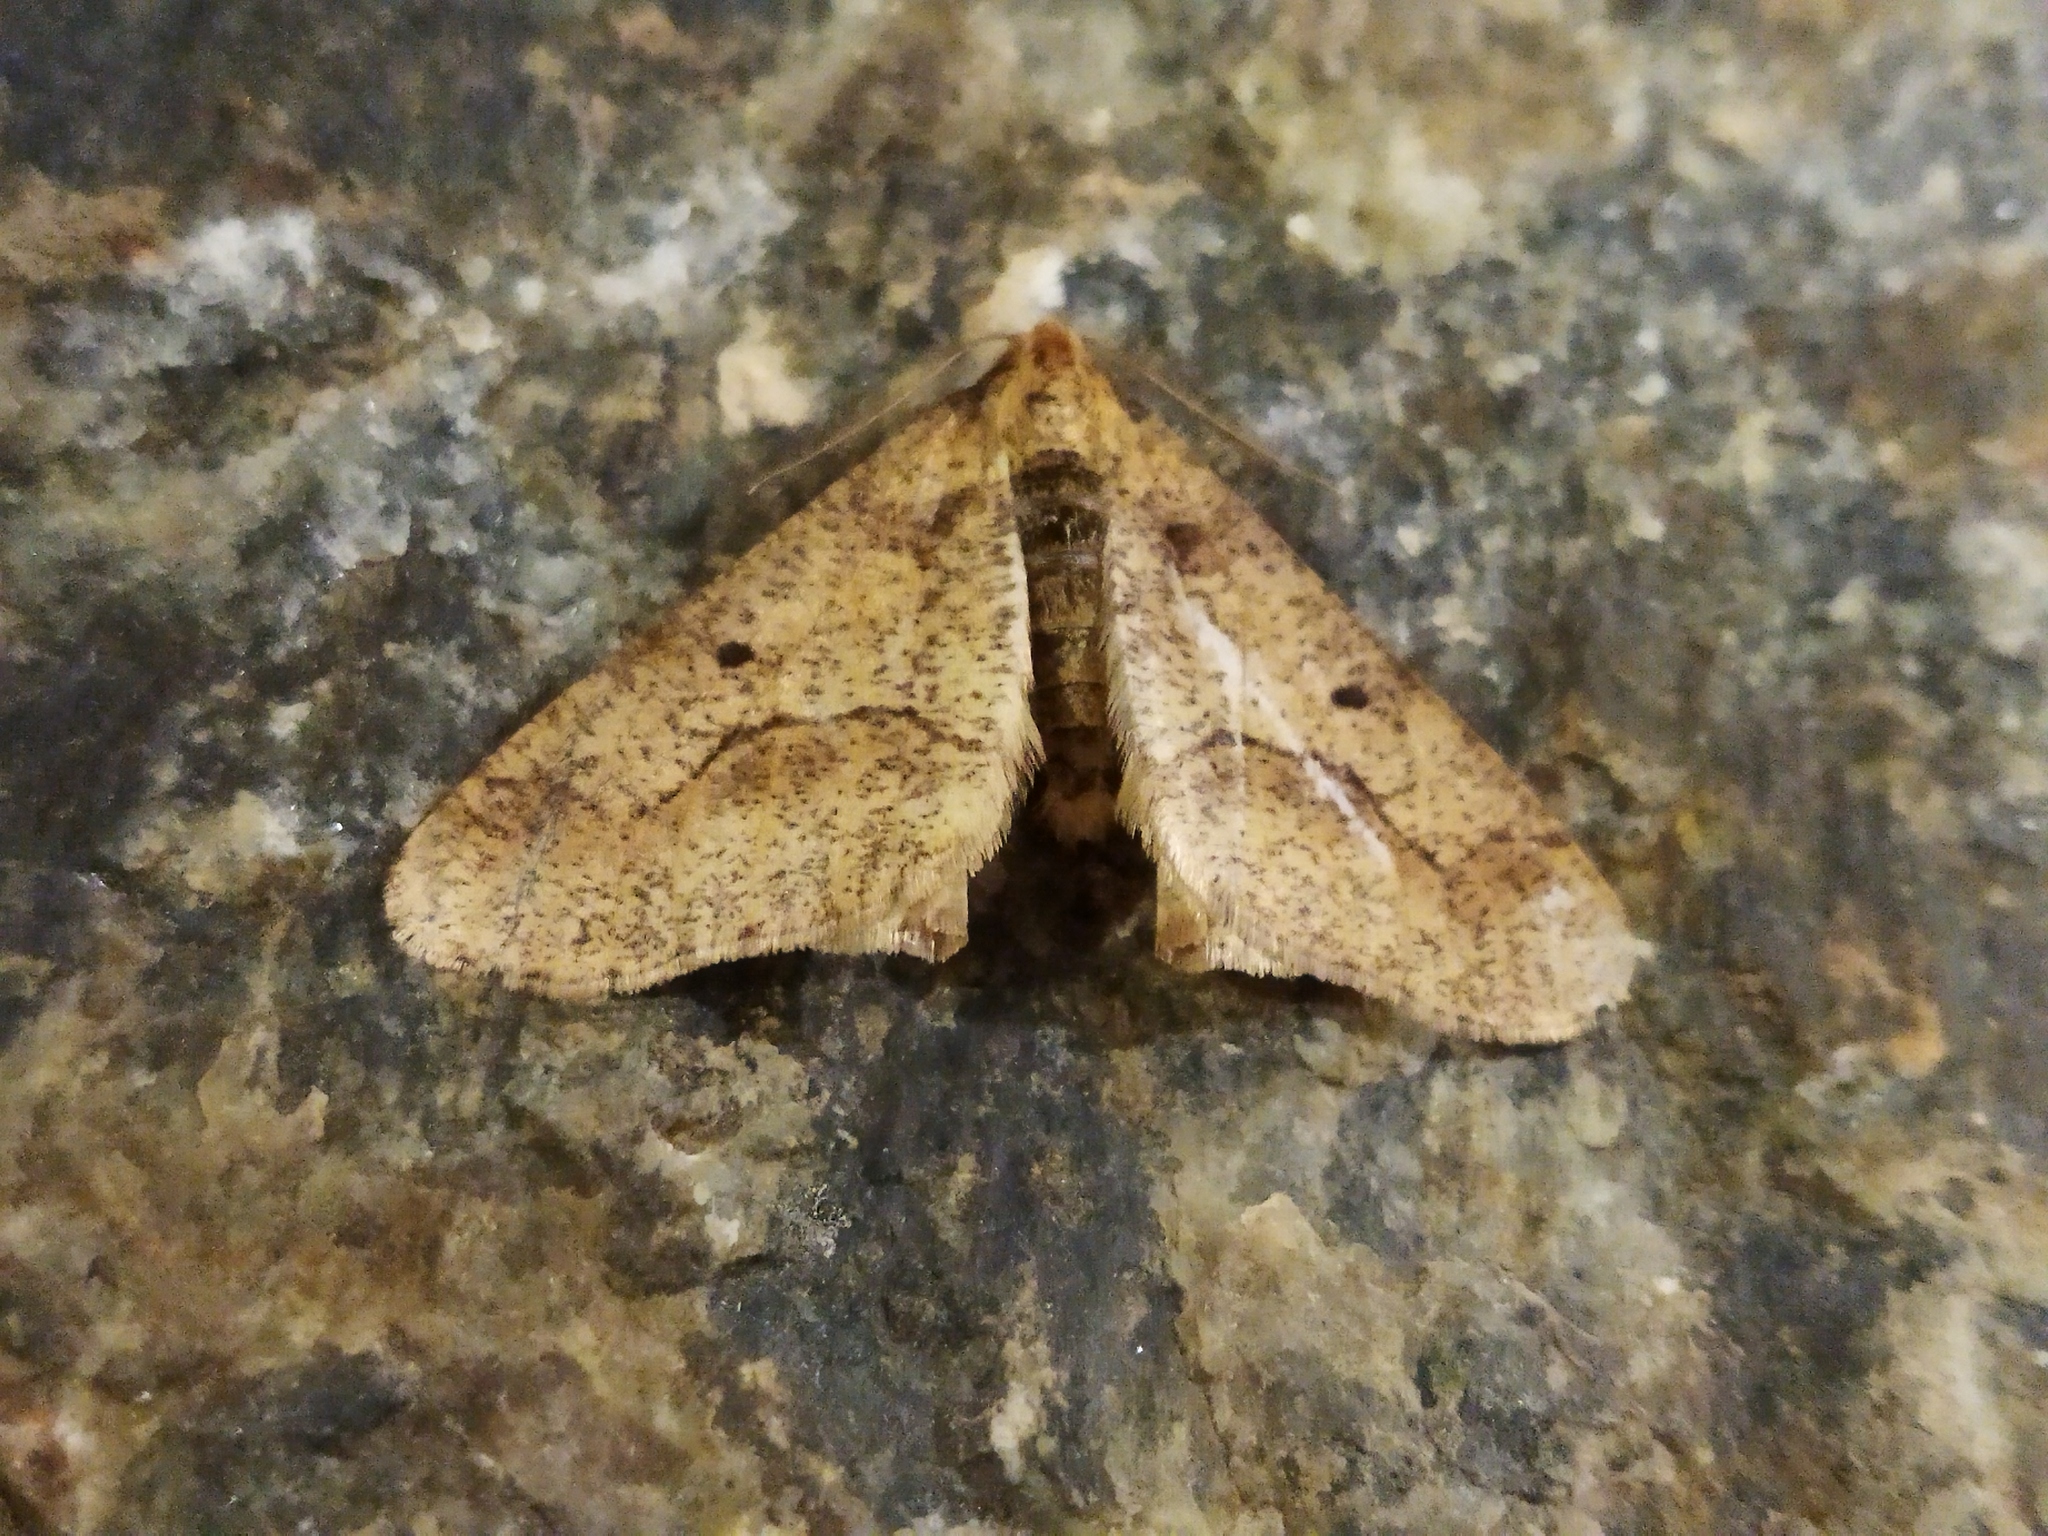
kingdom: Animalia
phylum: Arthropoda
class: Insecta
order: Lepidoptera
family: Geometridae
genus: Erannis
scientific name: Erannis defoliaria
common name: Mottled umber
